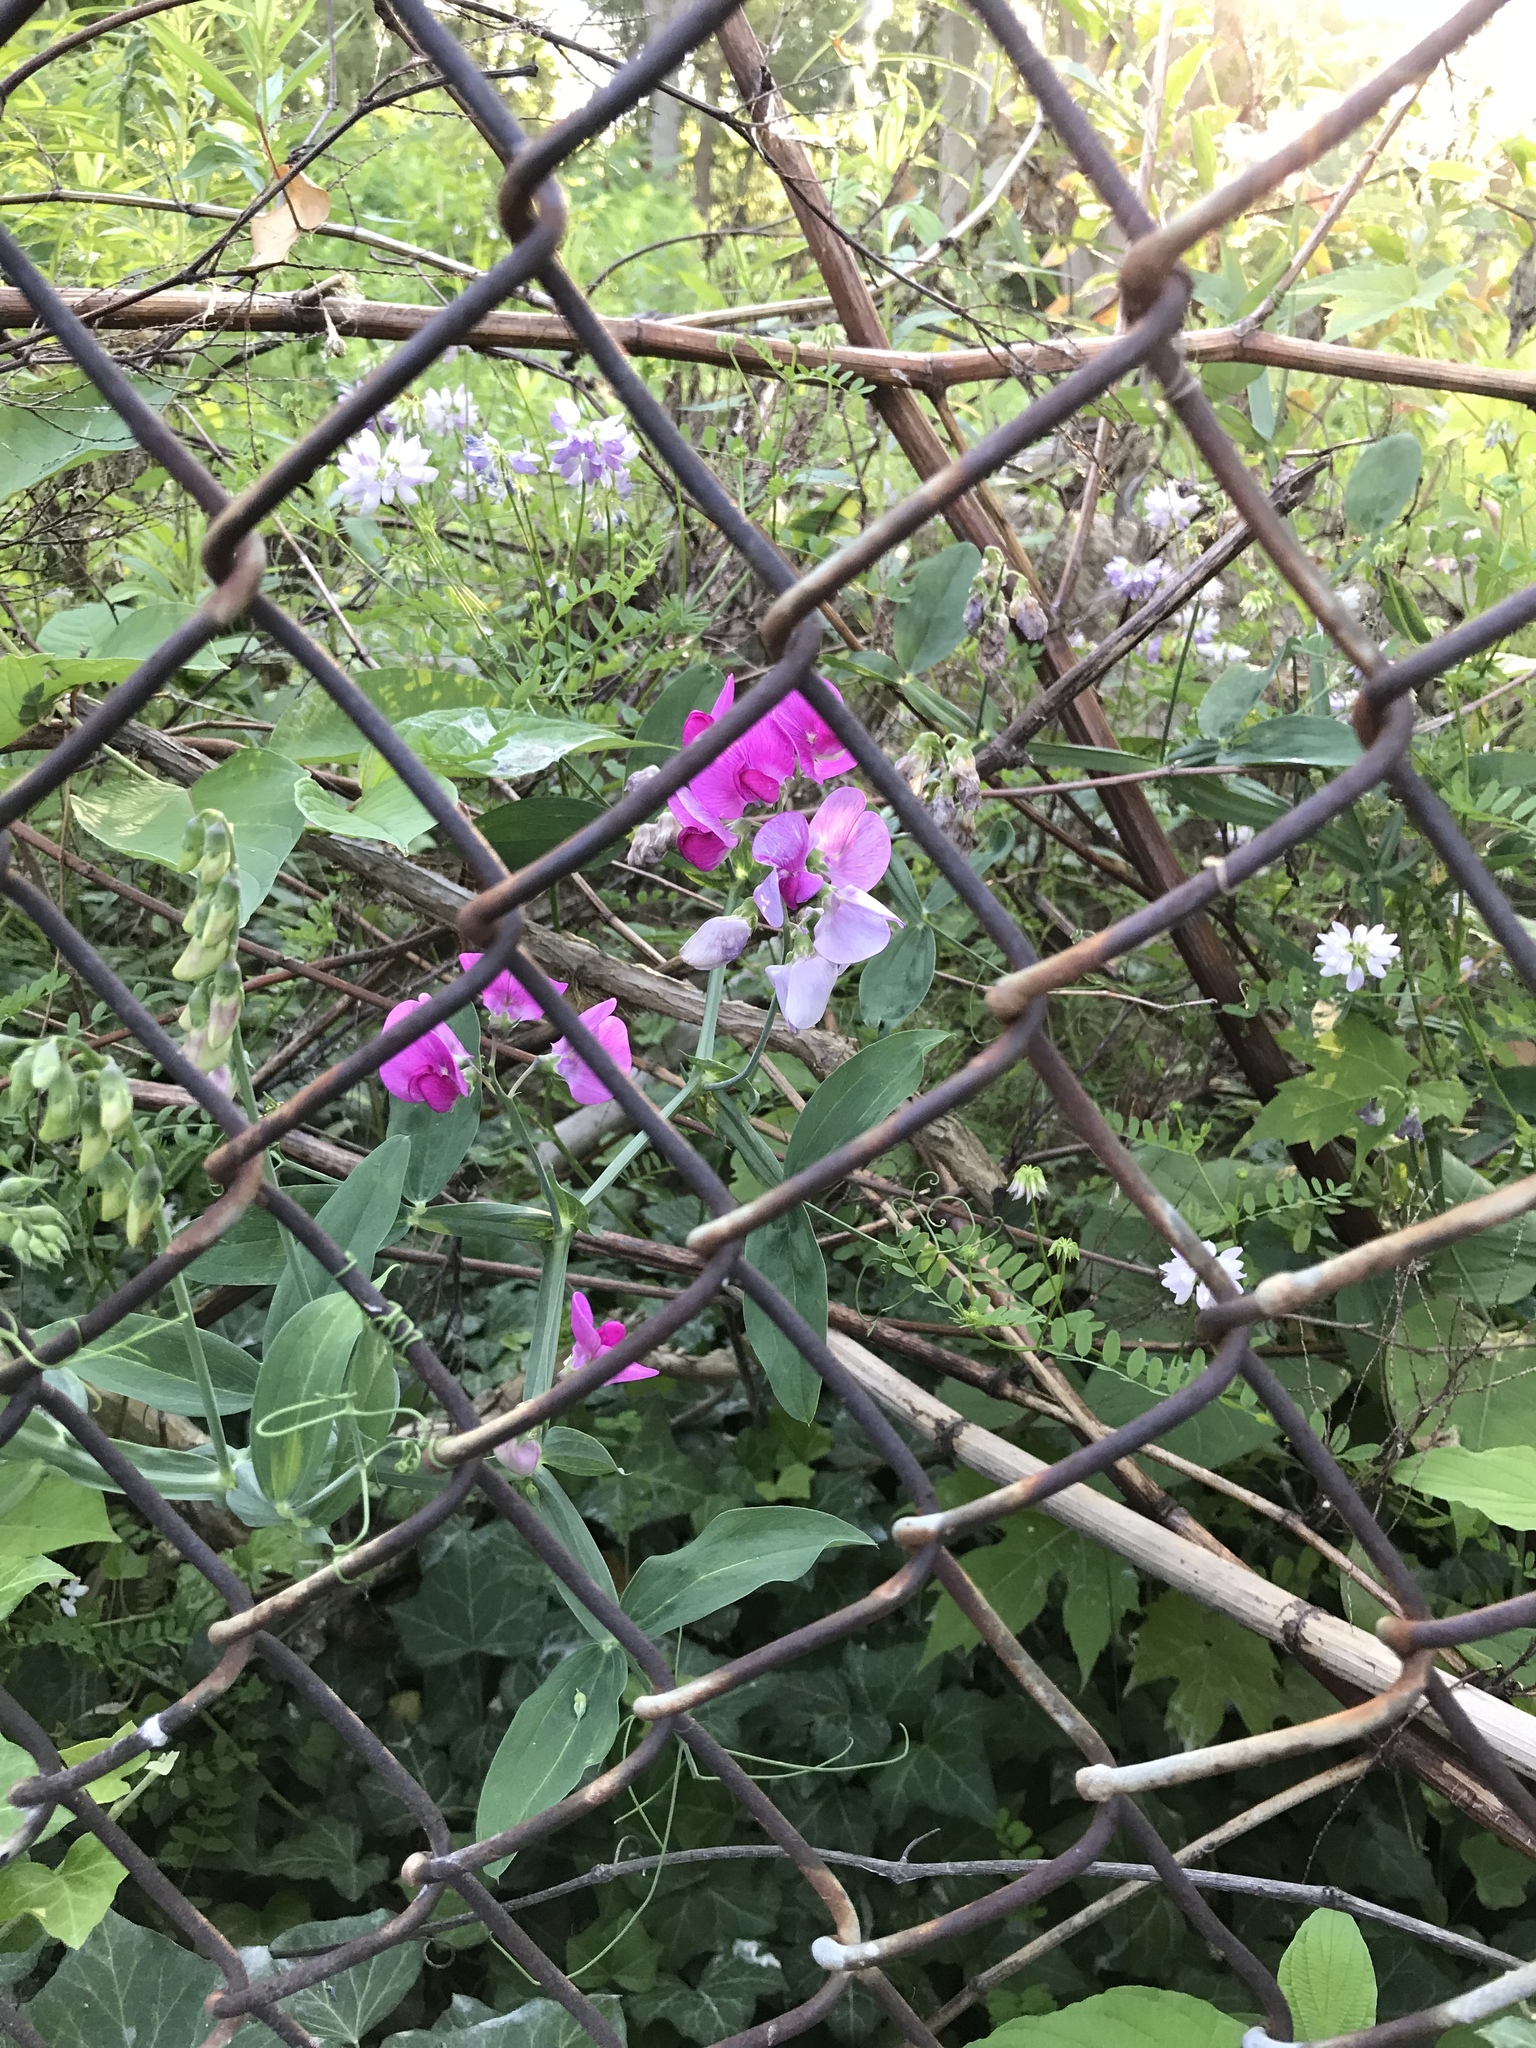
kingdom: Plantae
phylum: Tracheophyta
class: Magnoliopsida
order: Fabales
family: Fabaceae
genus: Lathyrus
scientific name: Lathyrus latifolius
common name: Perennial pea
